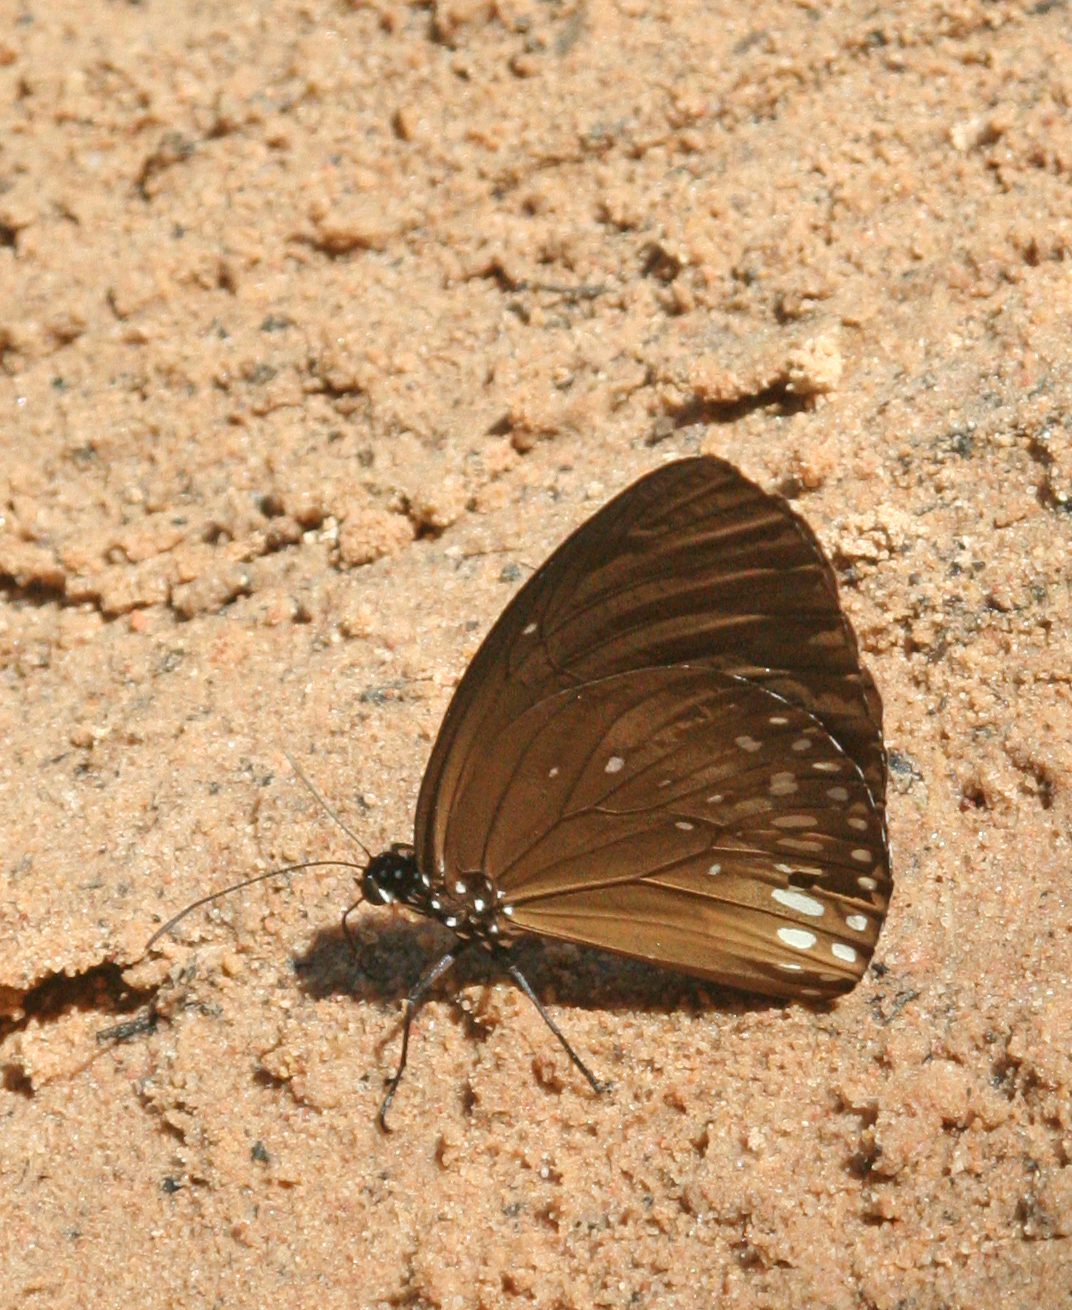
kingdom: Animalia
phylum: Arthropoda
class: Insecta
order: Lepidoptera
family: Nymphalidae
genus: Euploea
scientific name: Euploea algea
